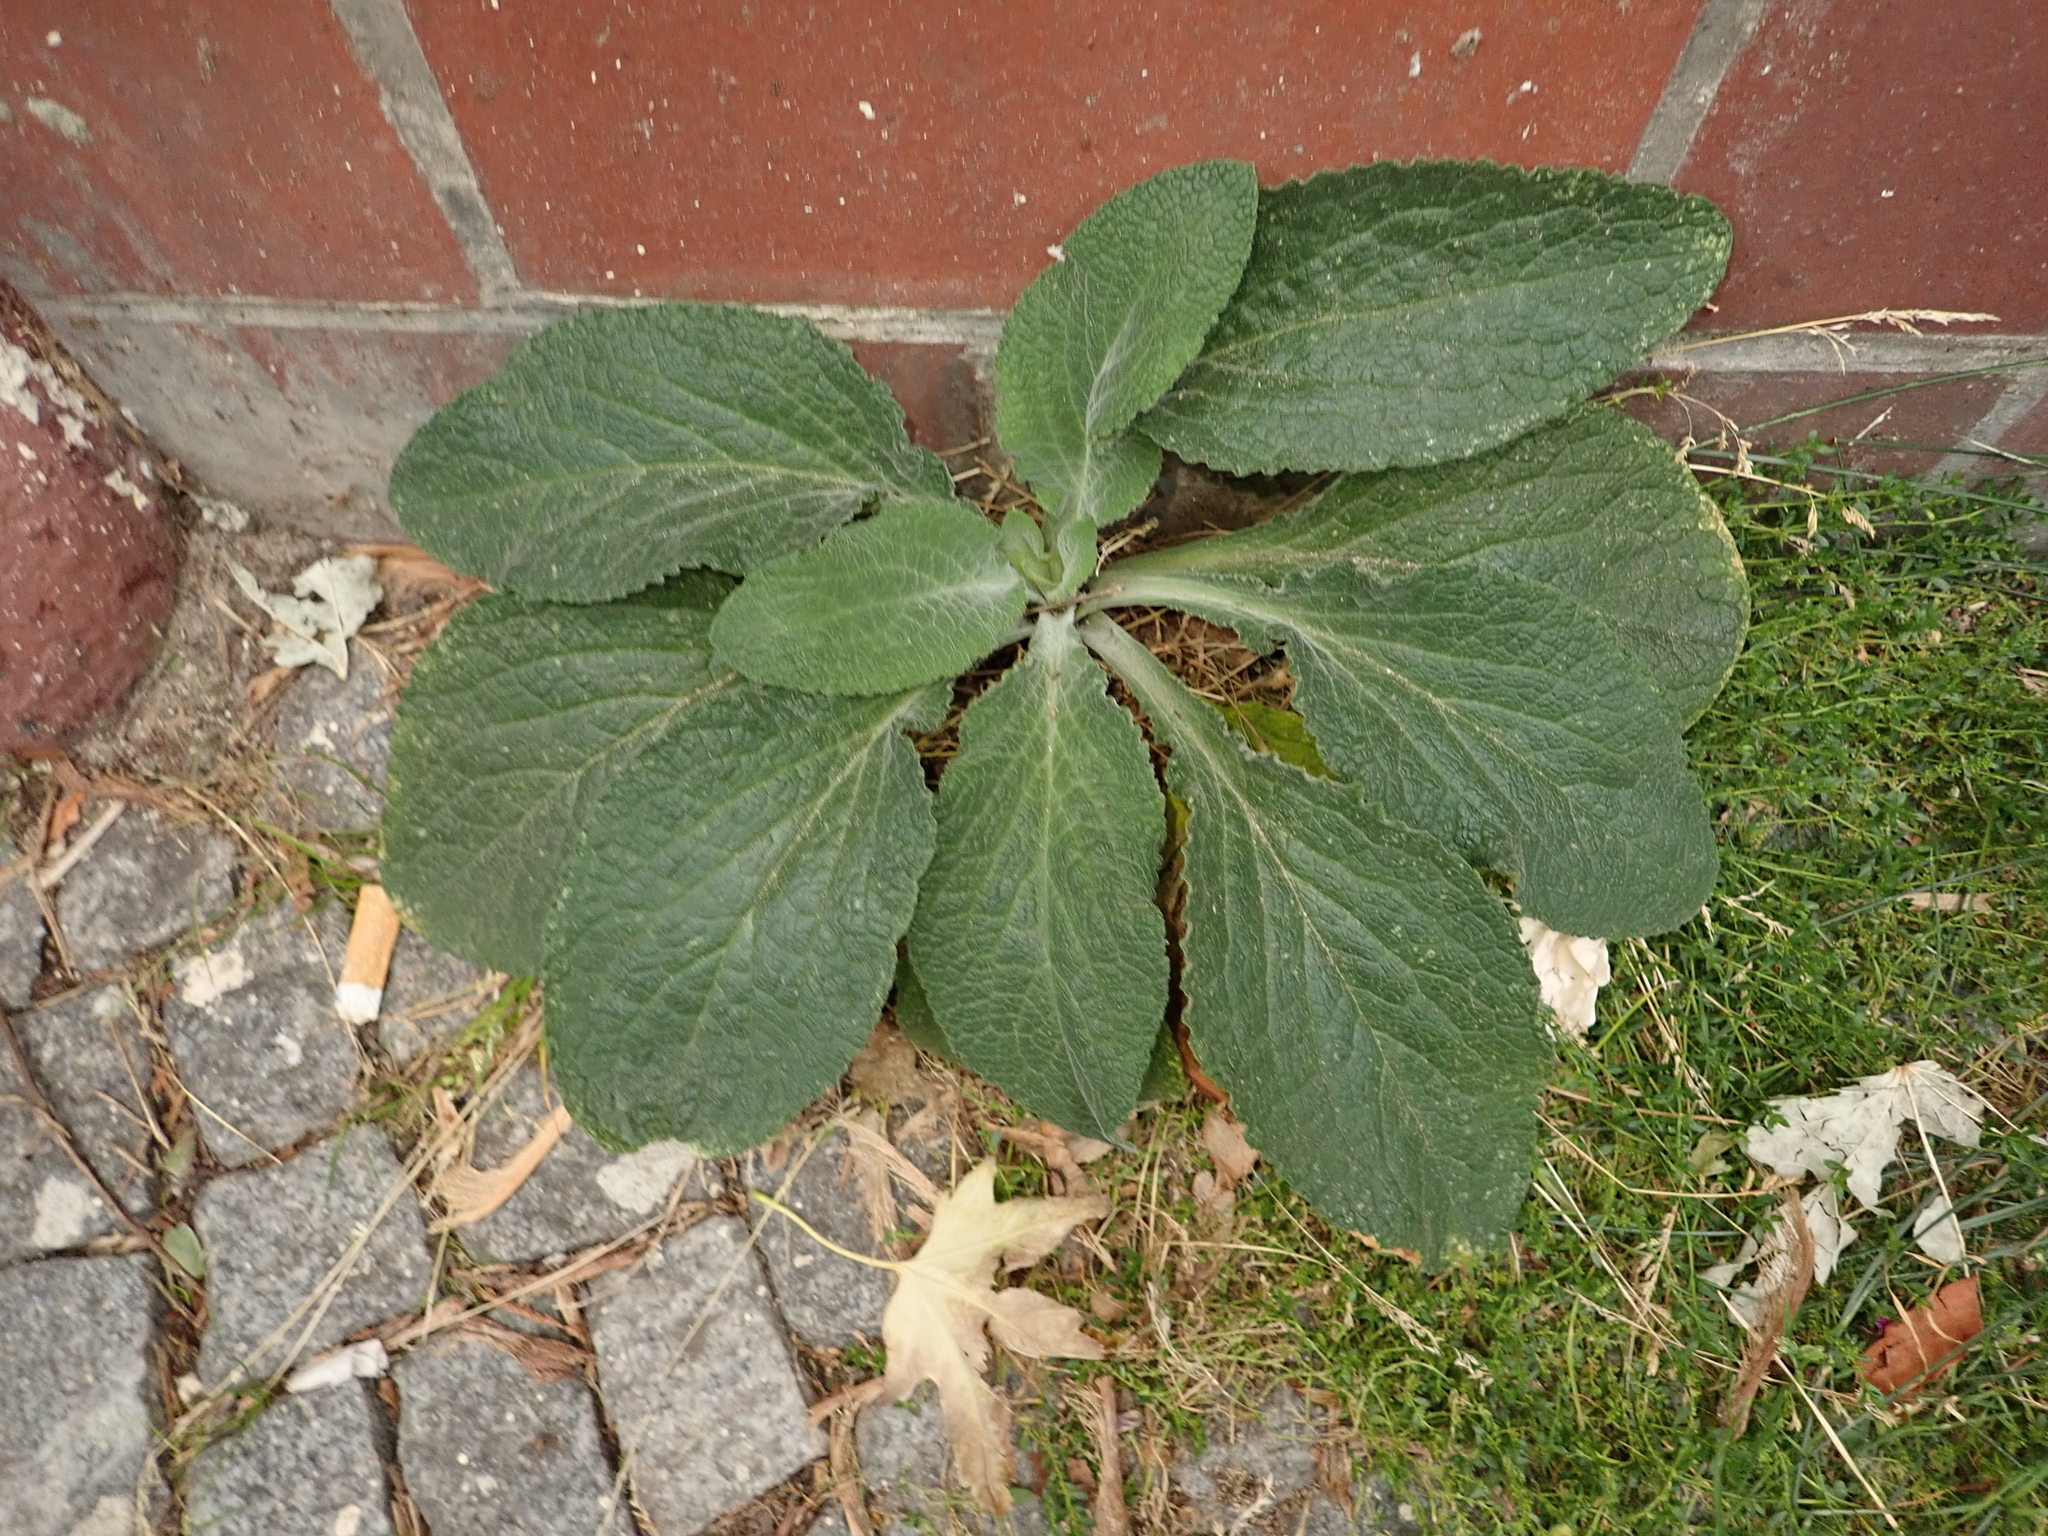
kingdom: Plantae
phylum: Tracheophyta
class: Magnoliopsida
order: Lamiales
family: Plantaginaceae
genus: Digitalis
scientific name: Digitalis purpurea
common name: Foxglove
